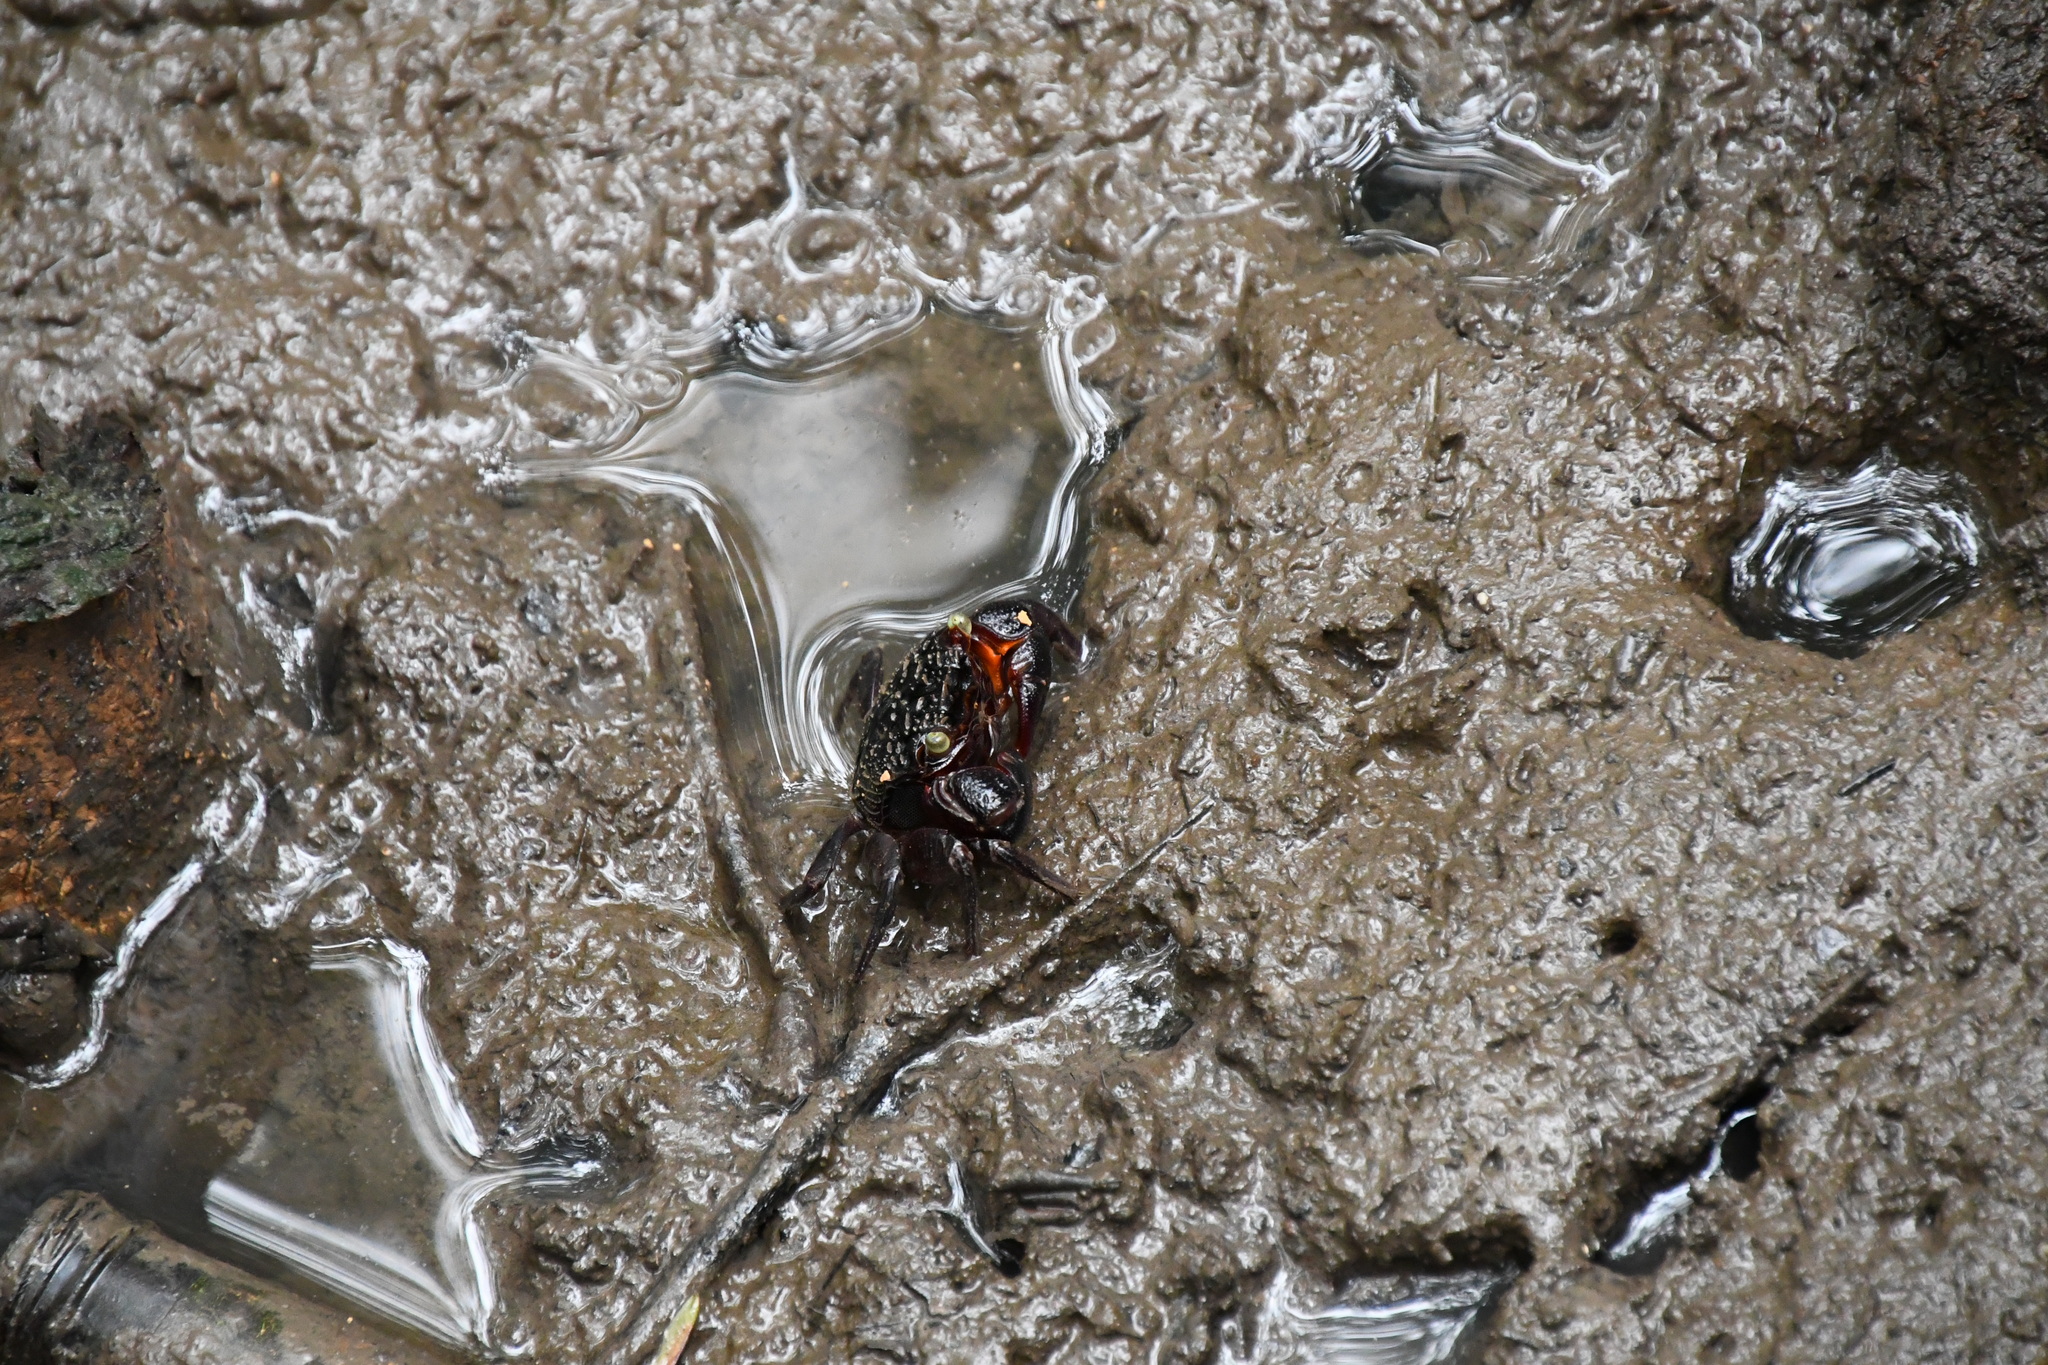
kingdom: Animalia
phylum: Arthropoda
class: Malacostraca
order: Decapoda
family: Sesarmidae
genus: Parasesarma
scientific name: Parasesarma messa
